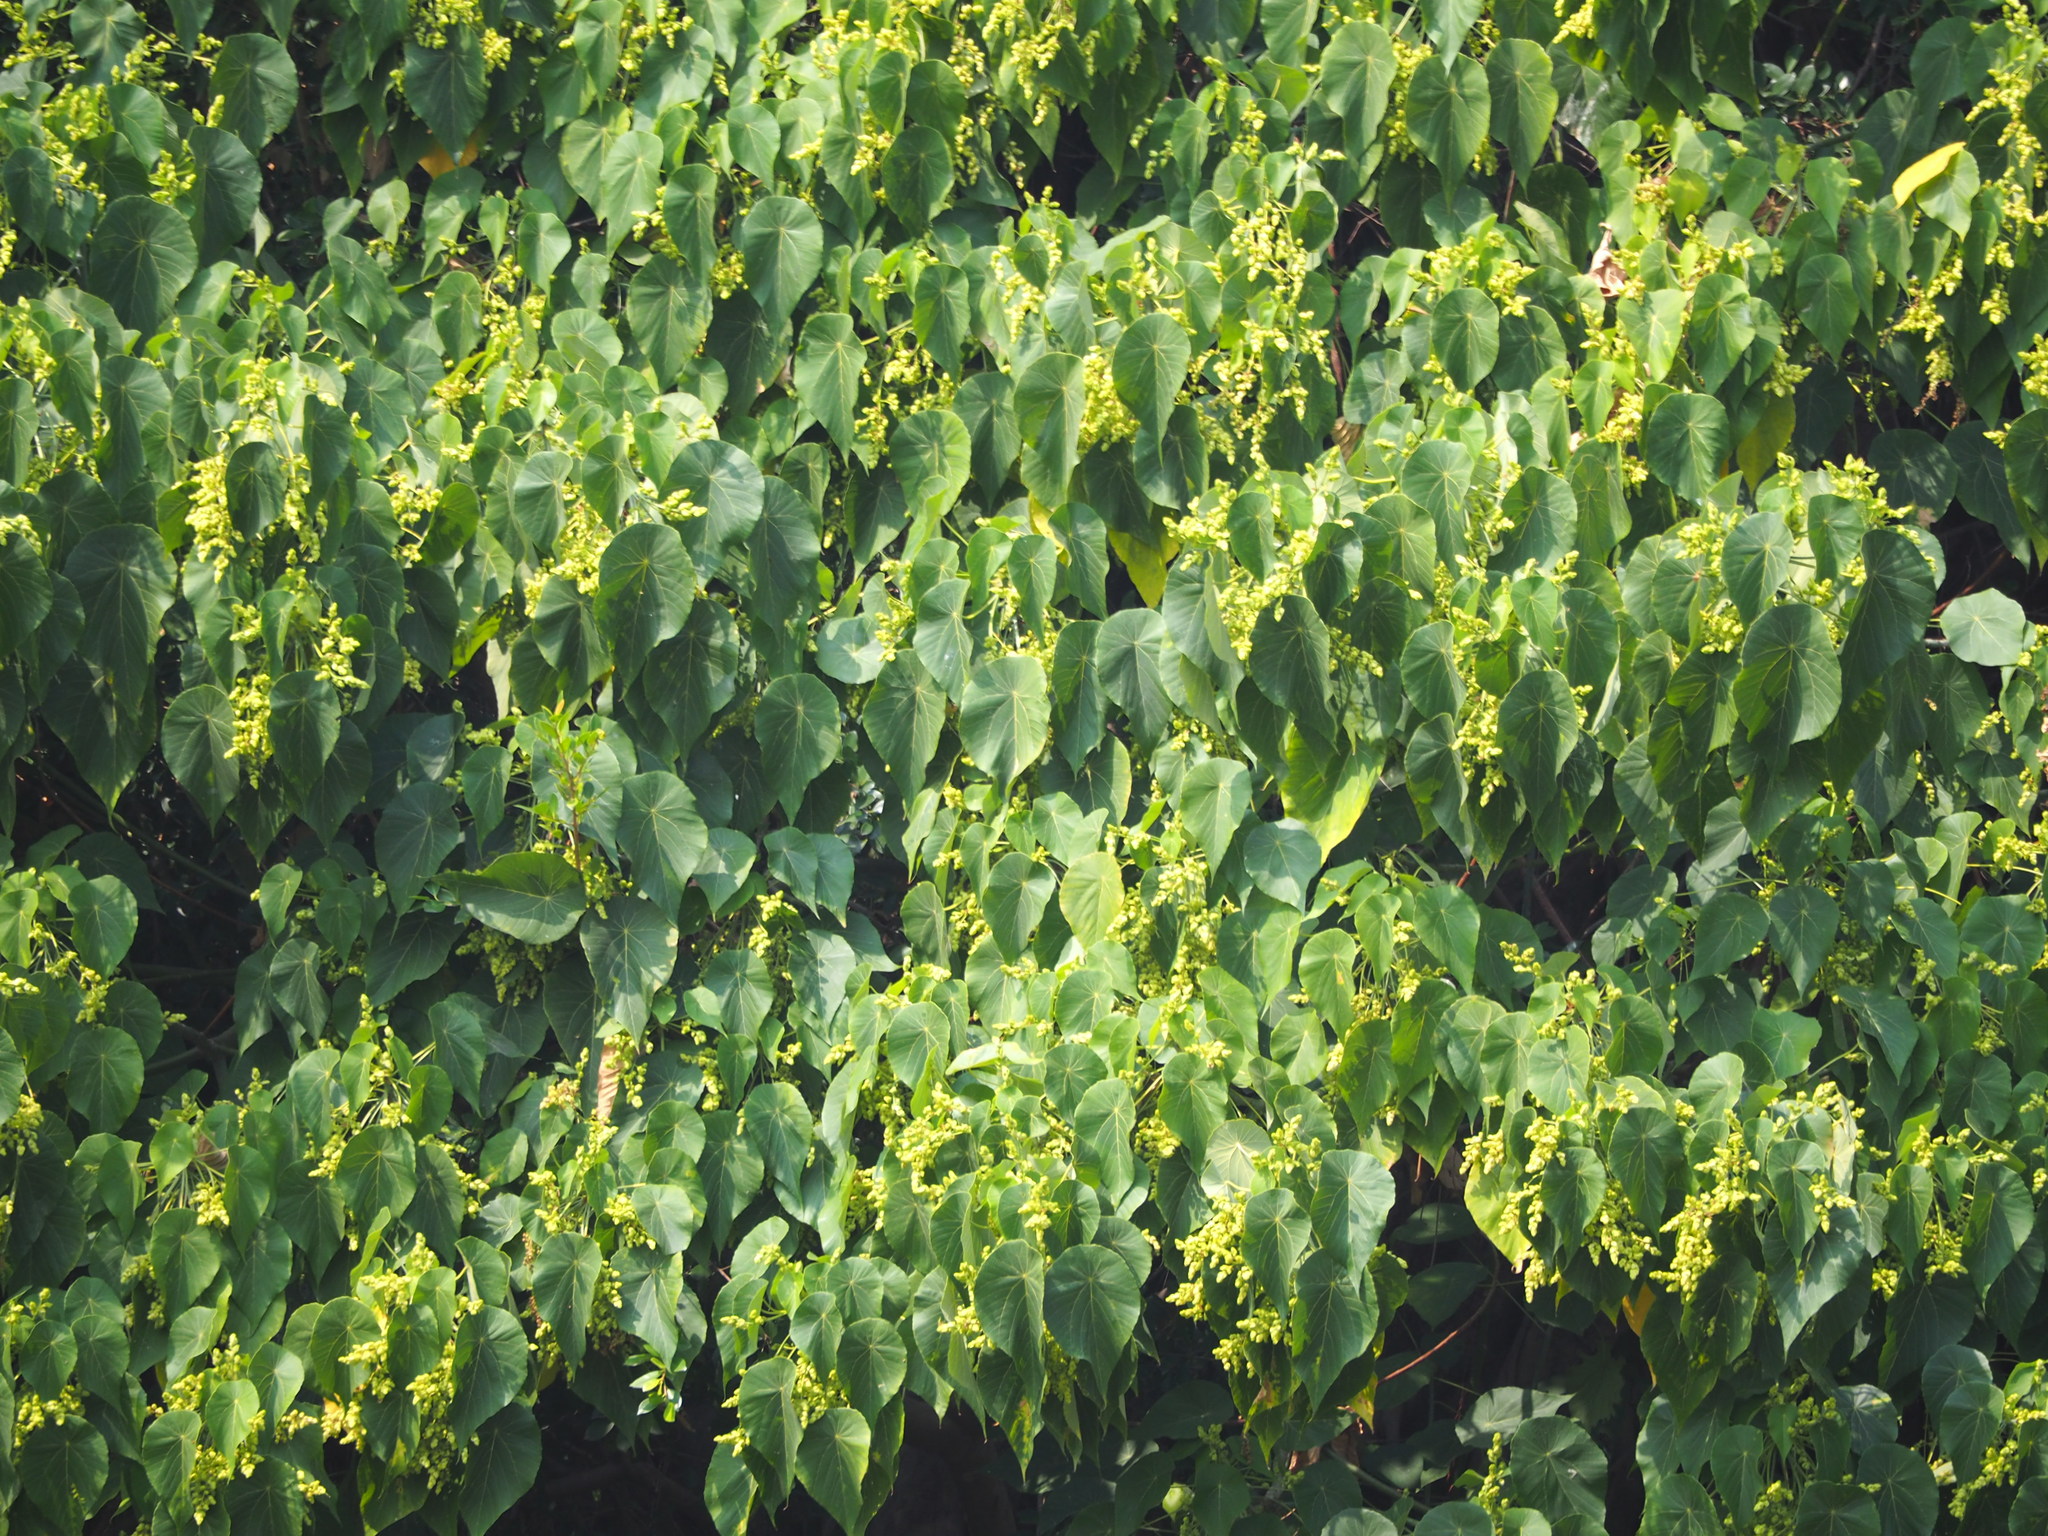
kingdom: Plantae
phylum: Tracheophyta
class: Magnoliopsida
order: Malpighiales
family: Euphorbiaceae
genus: Macaranga
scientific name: Macaranga tanarius
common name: Parasol leaf tree
